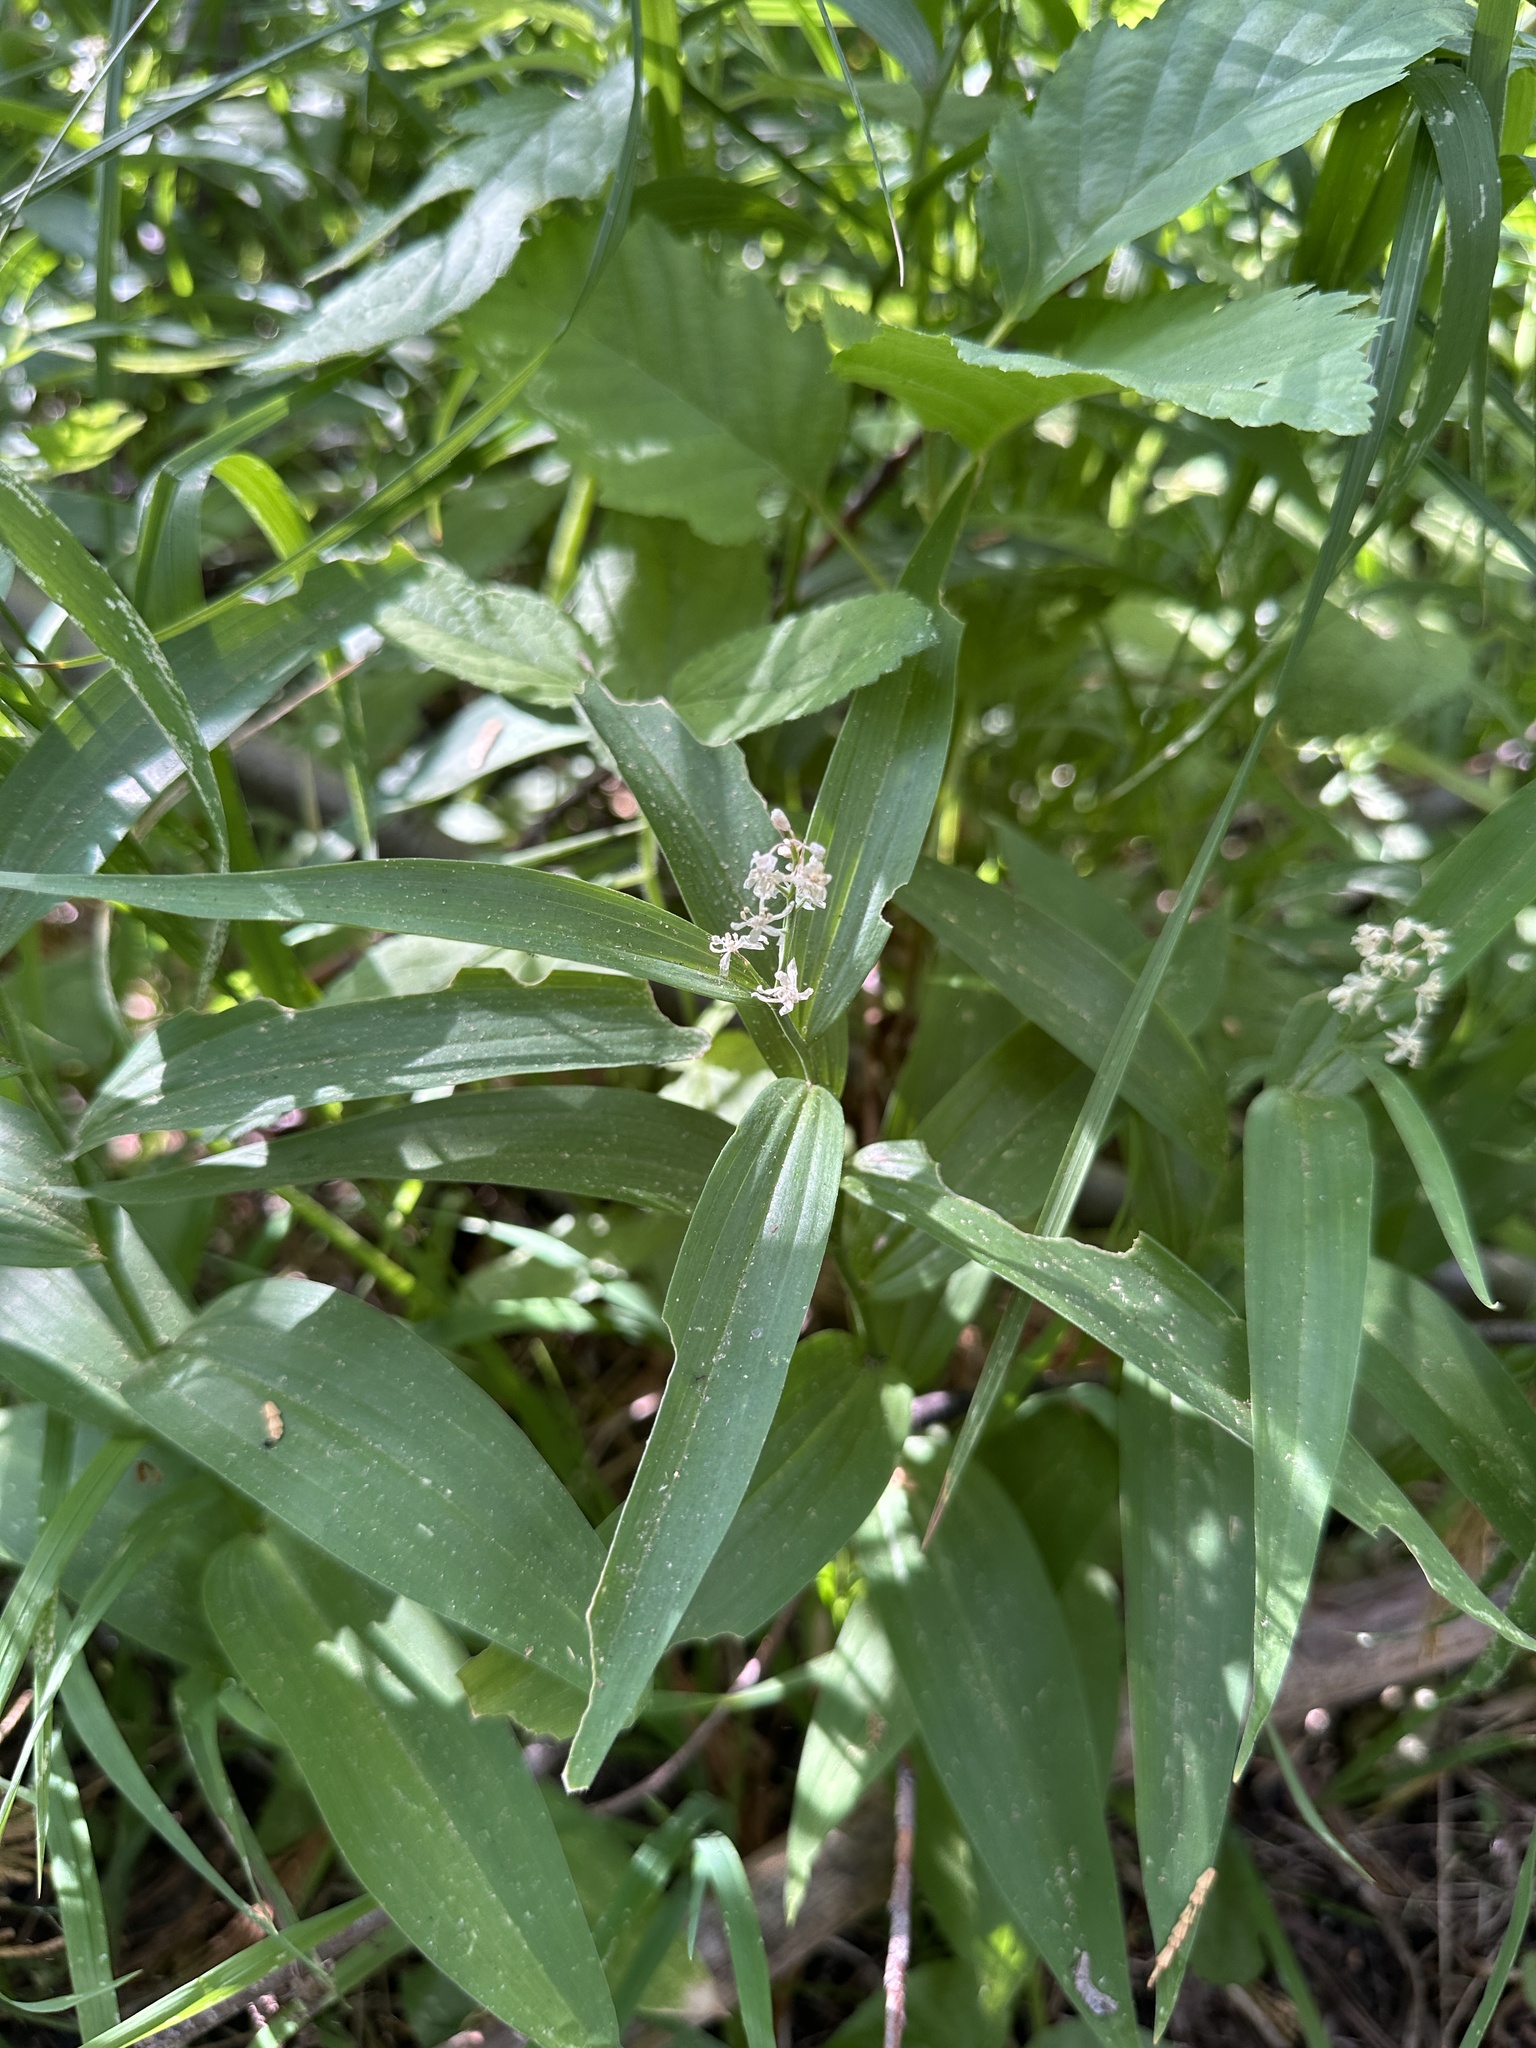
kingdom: Plantae
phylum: Tracheophyta
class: Liliopsida
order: Asparagales
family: Asparagaceae
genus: Maianthemum
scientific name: Maianthemum stellatum
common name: Little false solomon's seal
